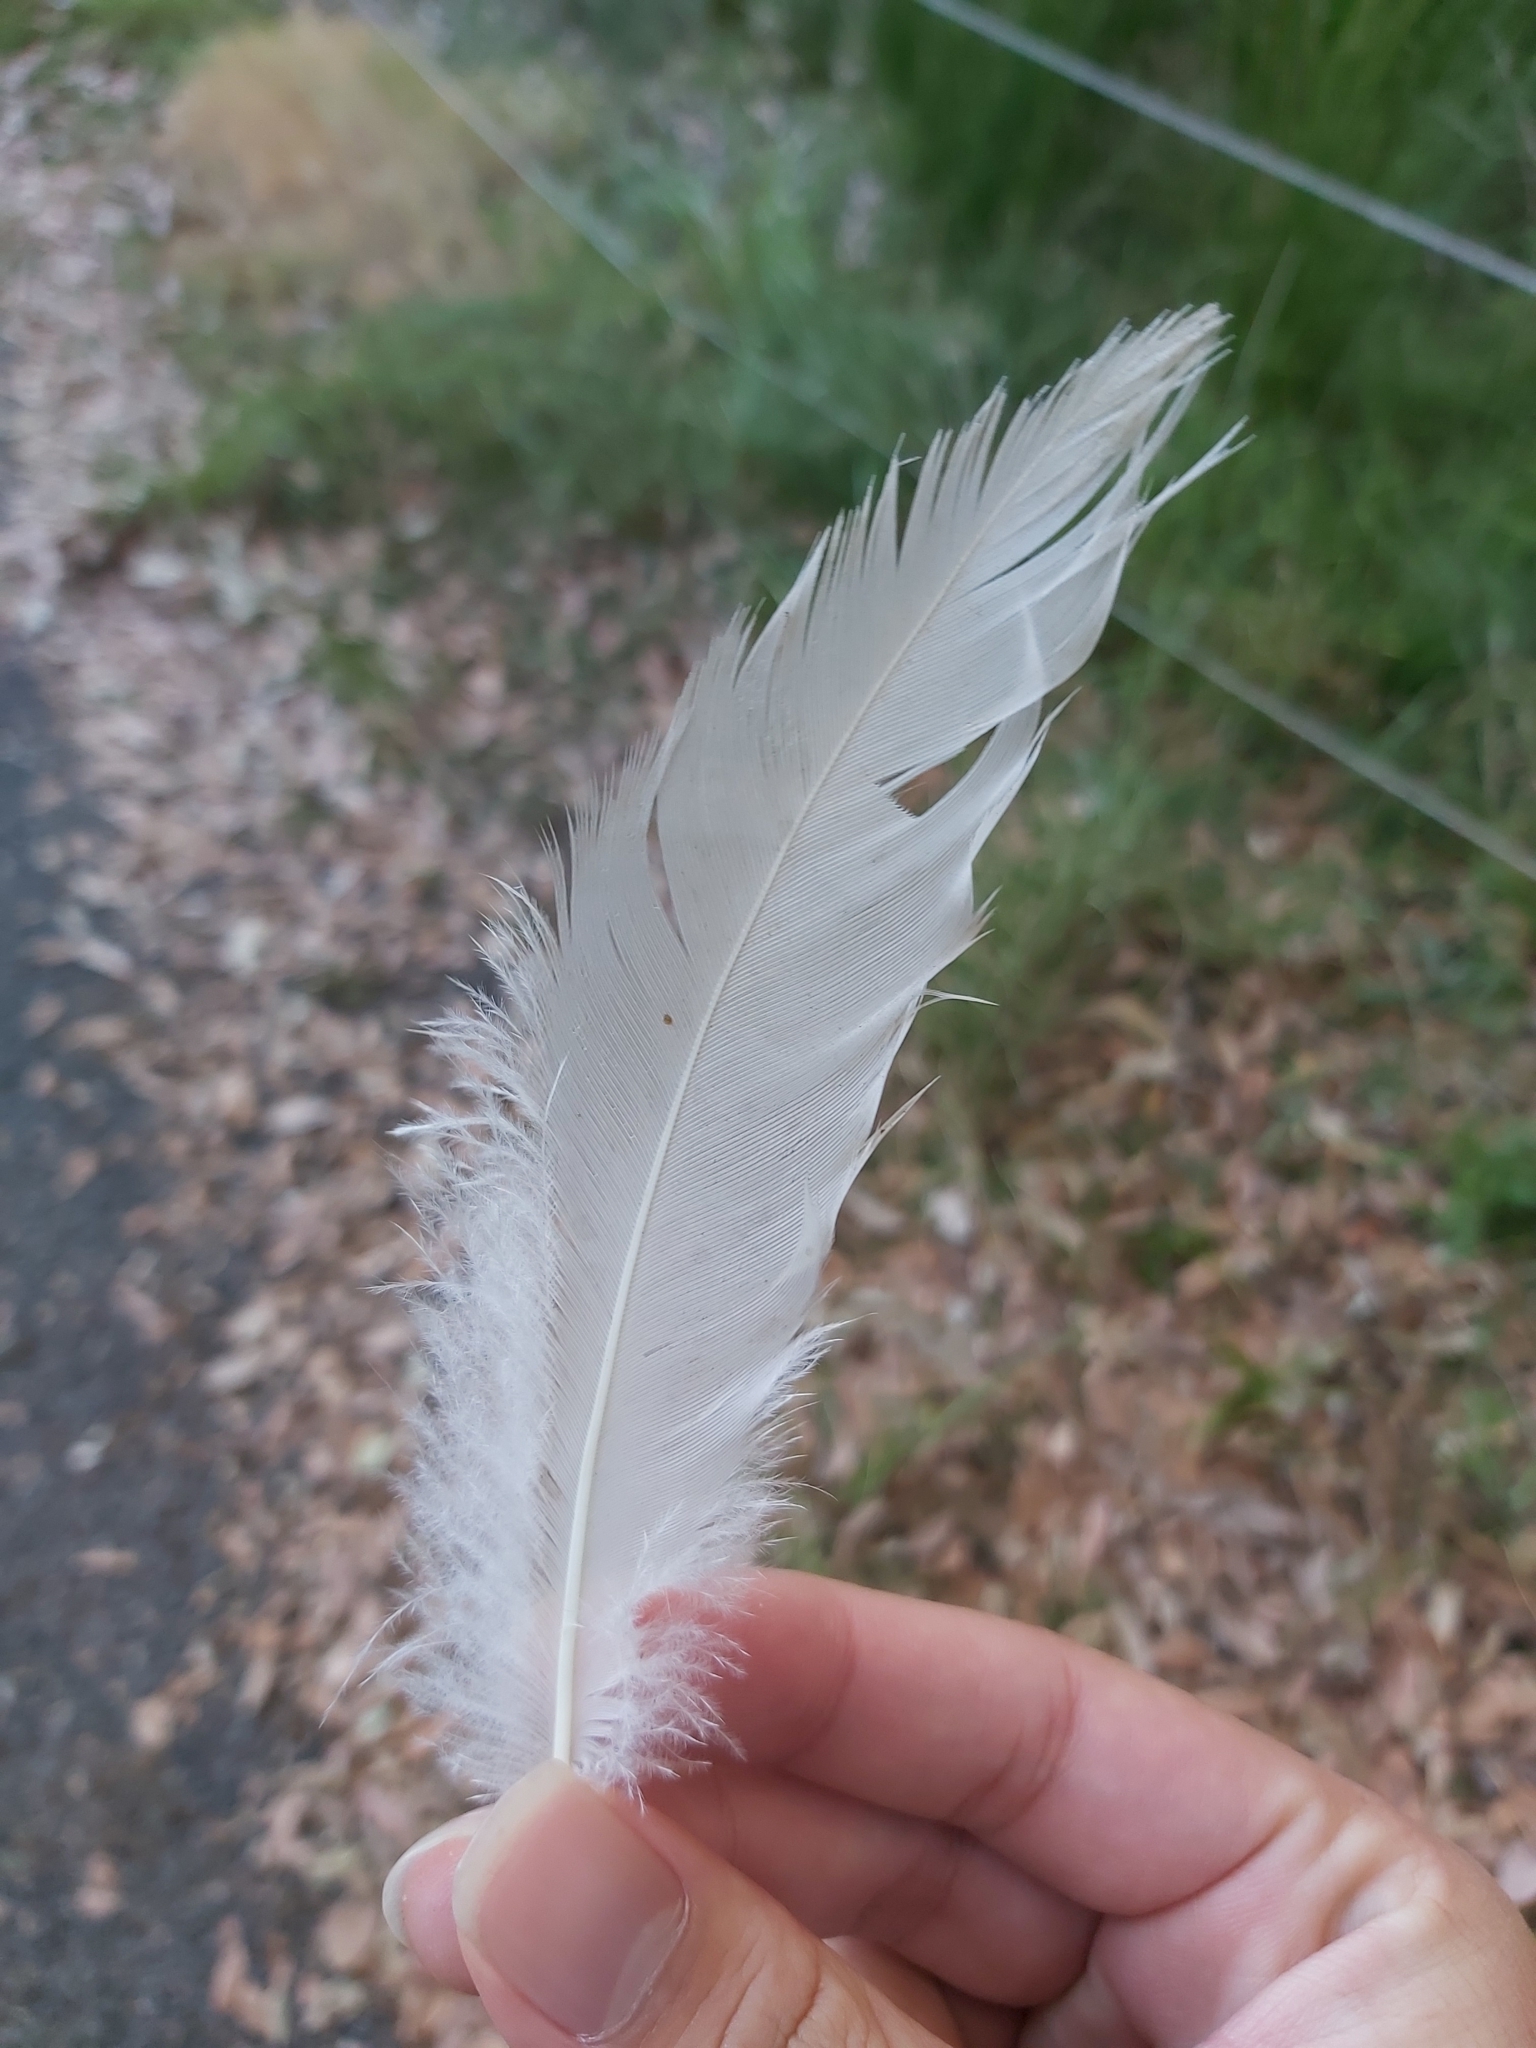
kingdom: Animalia
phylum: Chordata
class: Aves
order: Pelecaniformes
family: Threskiornithidae
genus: Threskiornis
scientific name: Threskiornis molucca
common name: Australian white ibis
